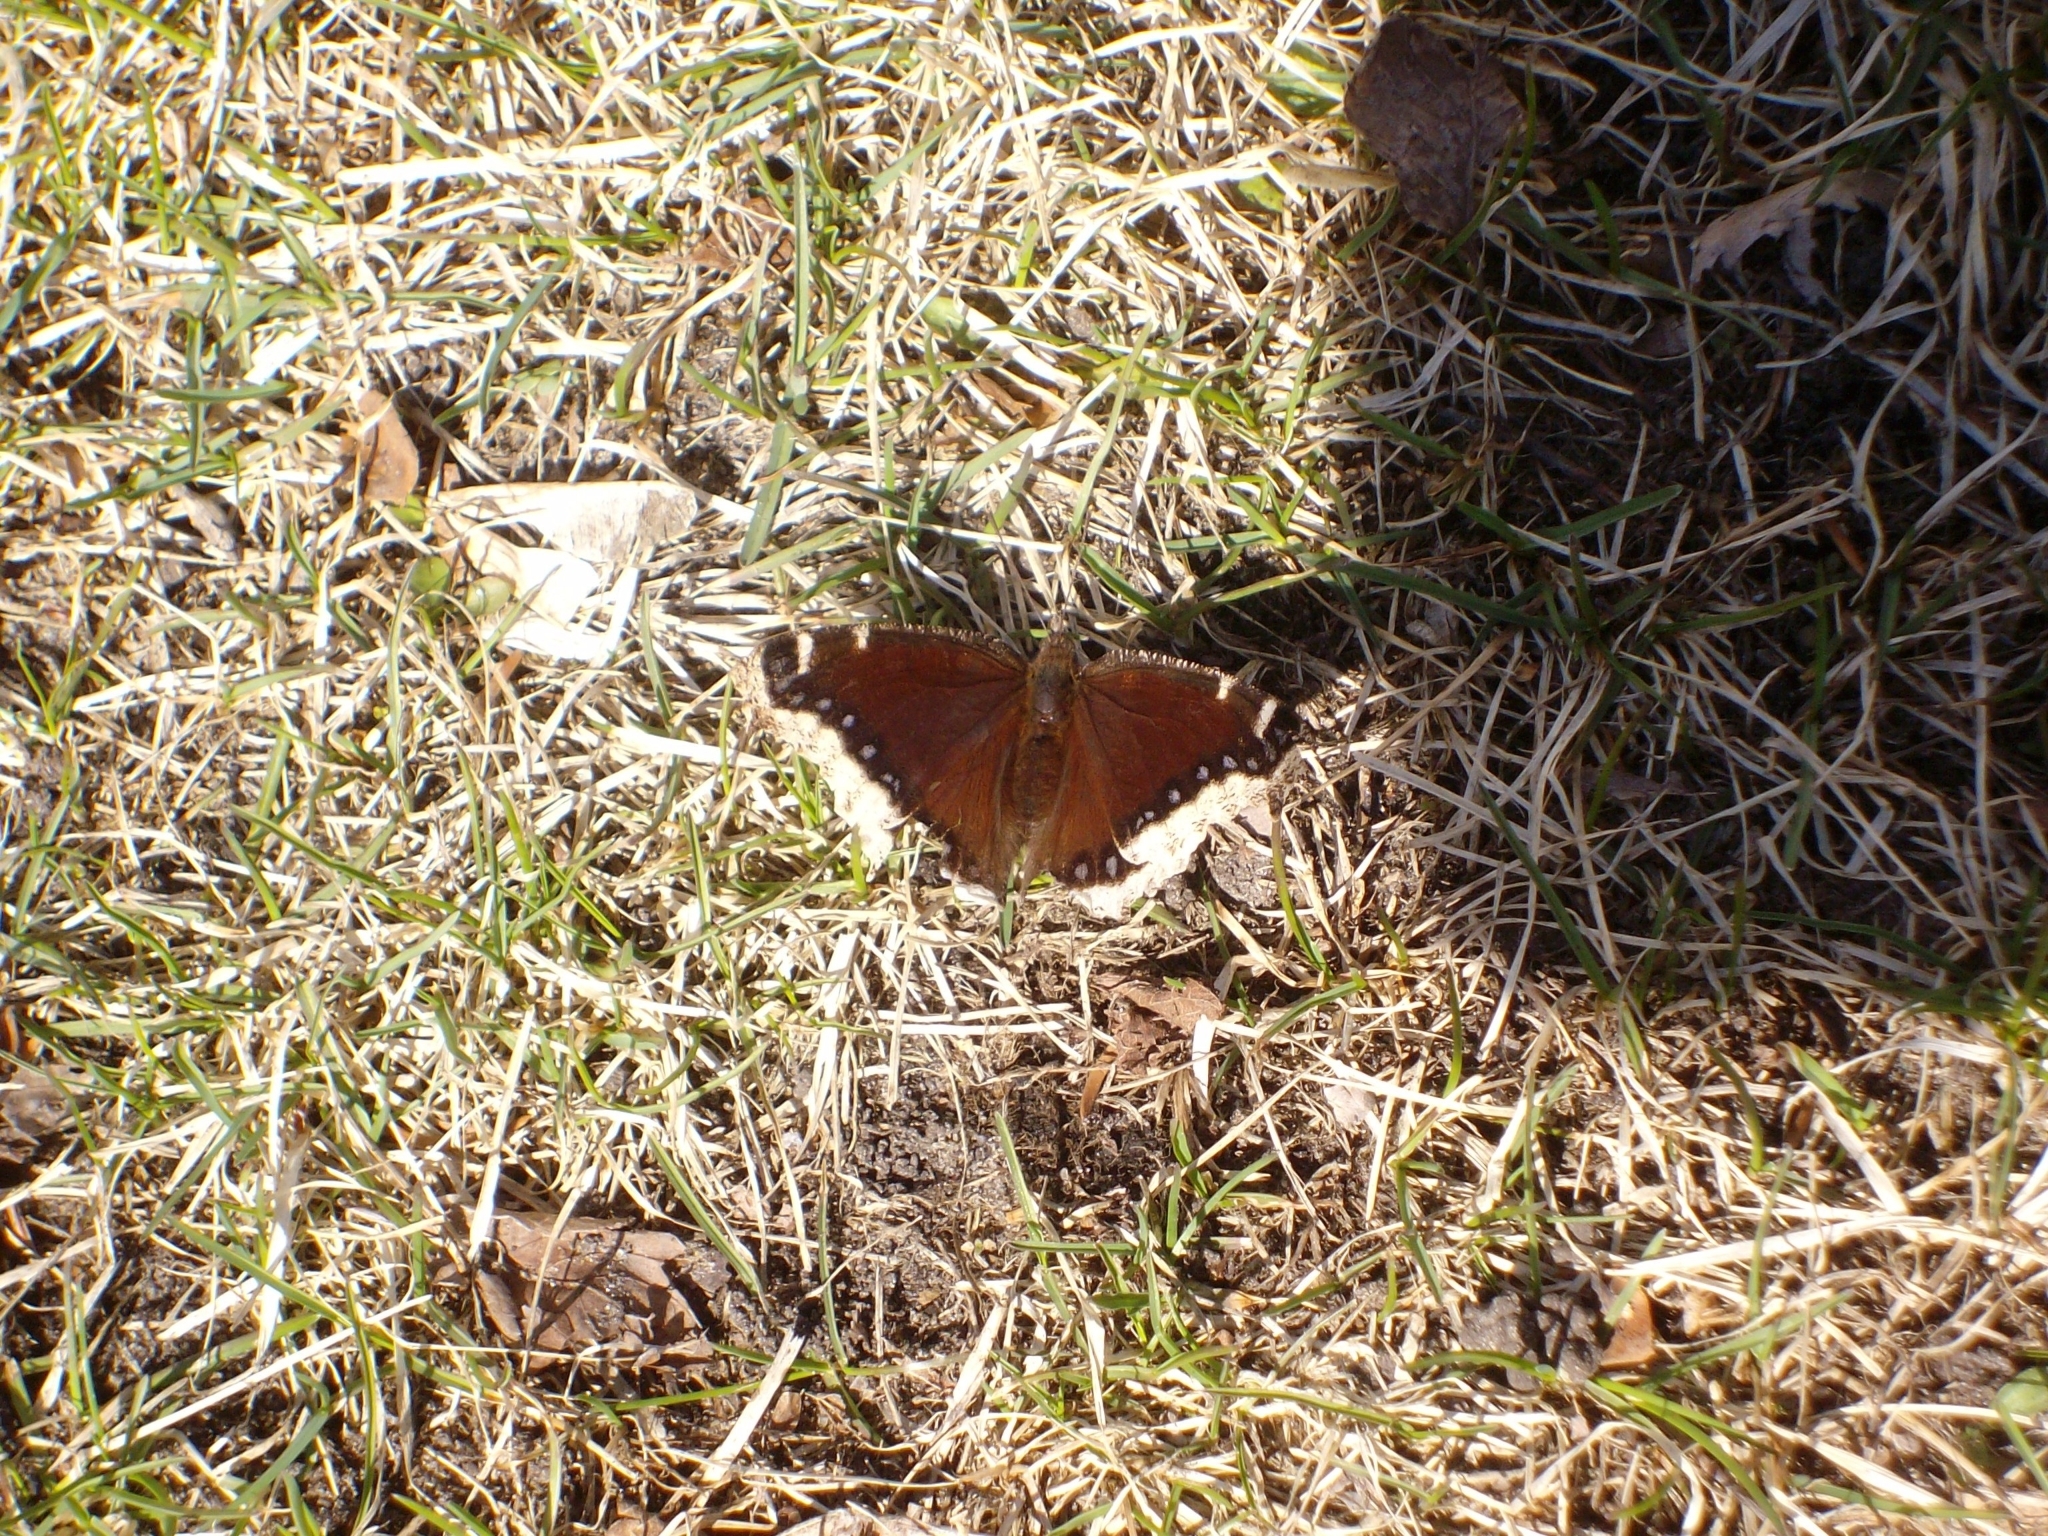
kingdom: Animalia
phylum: Arthropoda
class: Insecta
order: Lepidoptera
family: Nymphalidae
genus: Nymphalis
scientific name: Nymphalis antiopa
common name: Camberwell beauty
